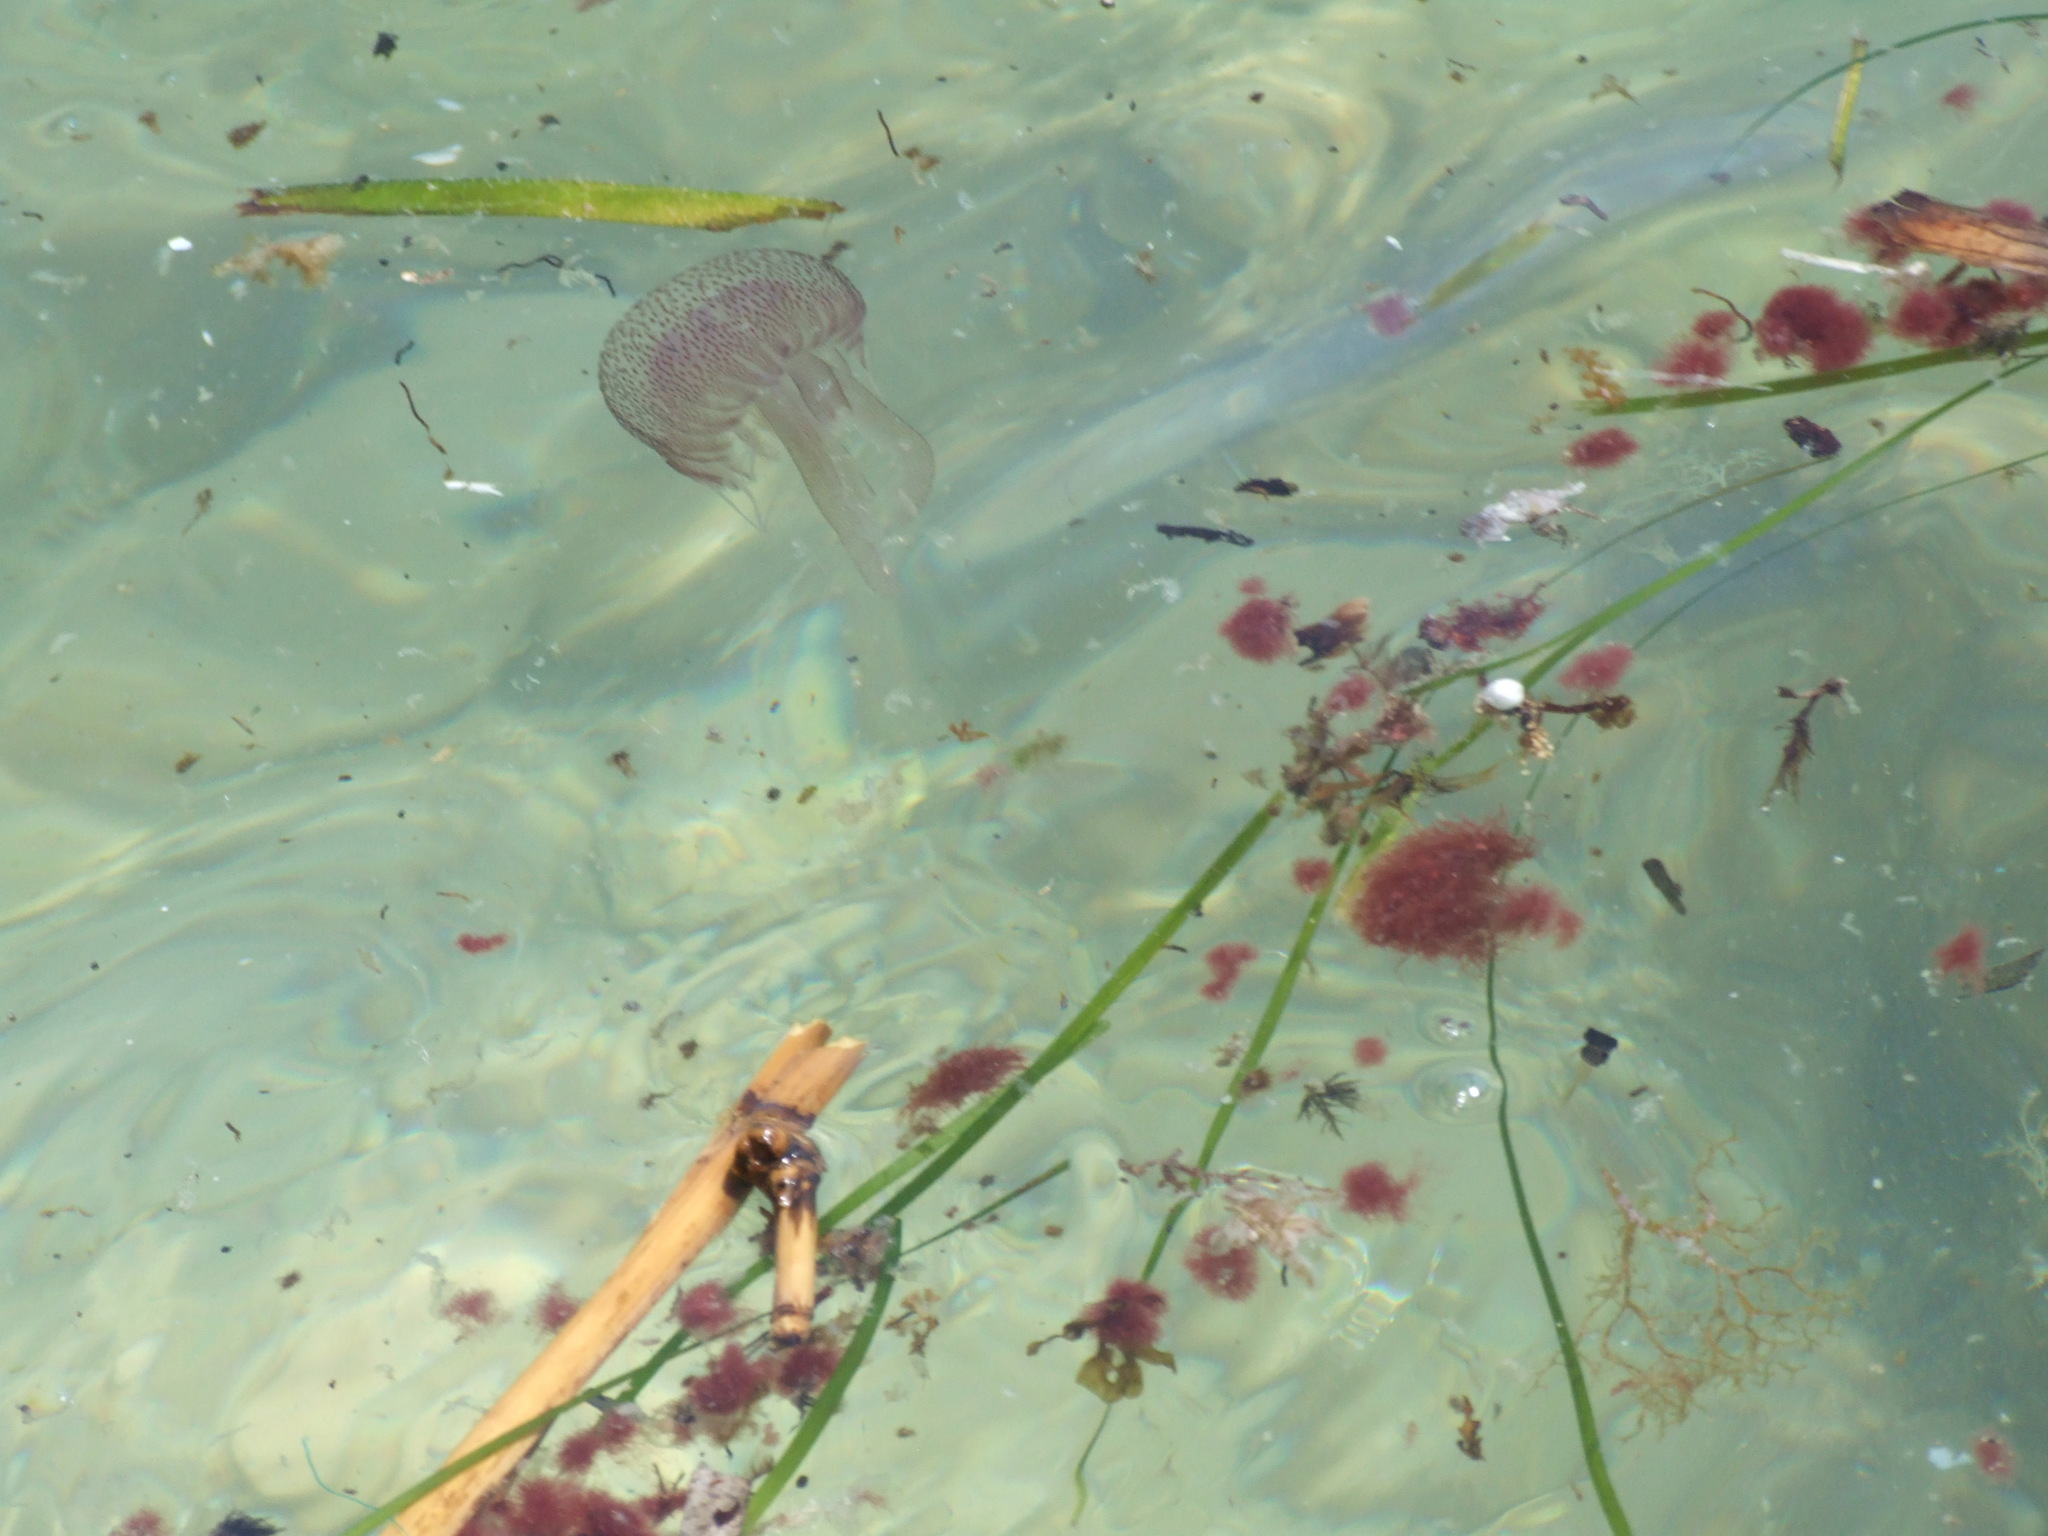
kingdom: Animalia
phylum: Cnidaria
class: Scyphozoa
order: Semaeostomeae
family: Pelagiidae
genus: Pelagia
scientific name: Pelagia noctiluca
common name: Mauve stinger
